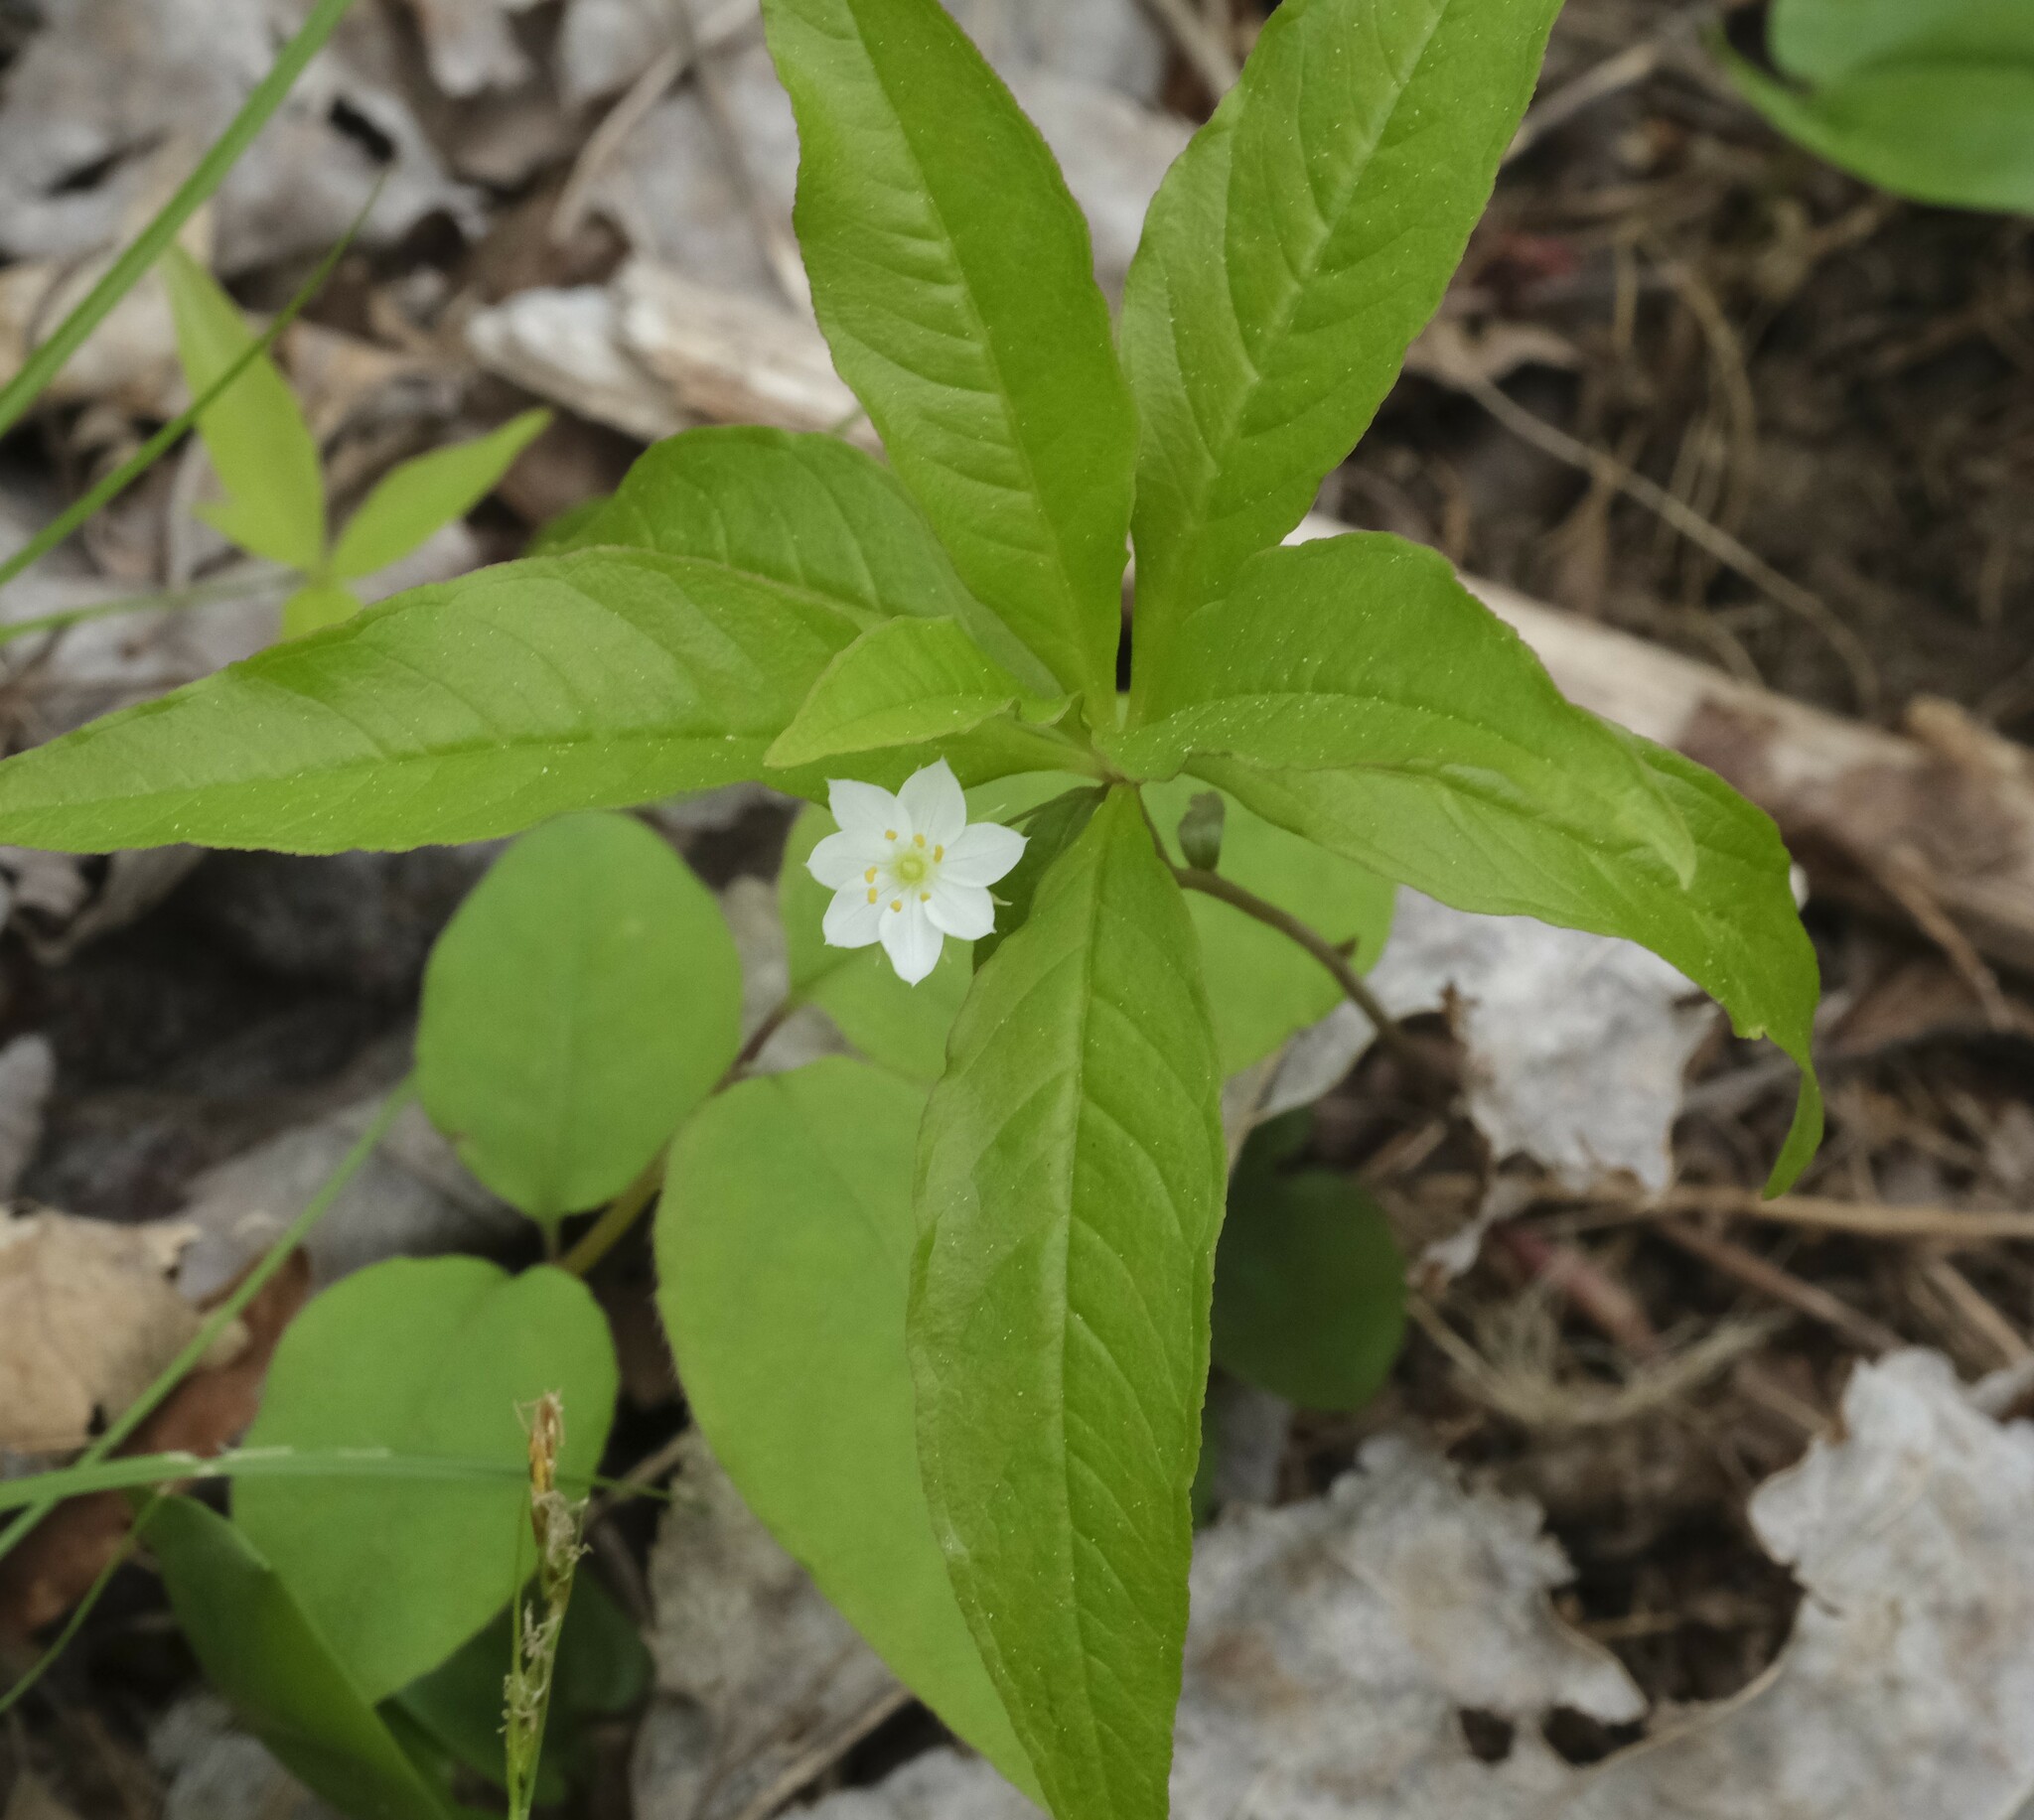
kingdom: Plantae
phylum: Tracheophyta
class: Magnoliopsida
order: Ericales
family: Primulaceae
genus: Lysimachia
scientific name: Lysimachia borealis
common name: American starflower
